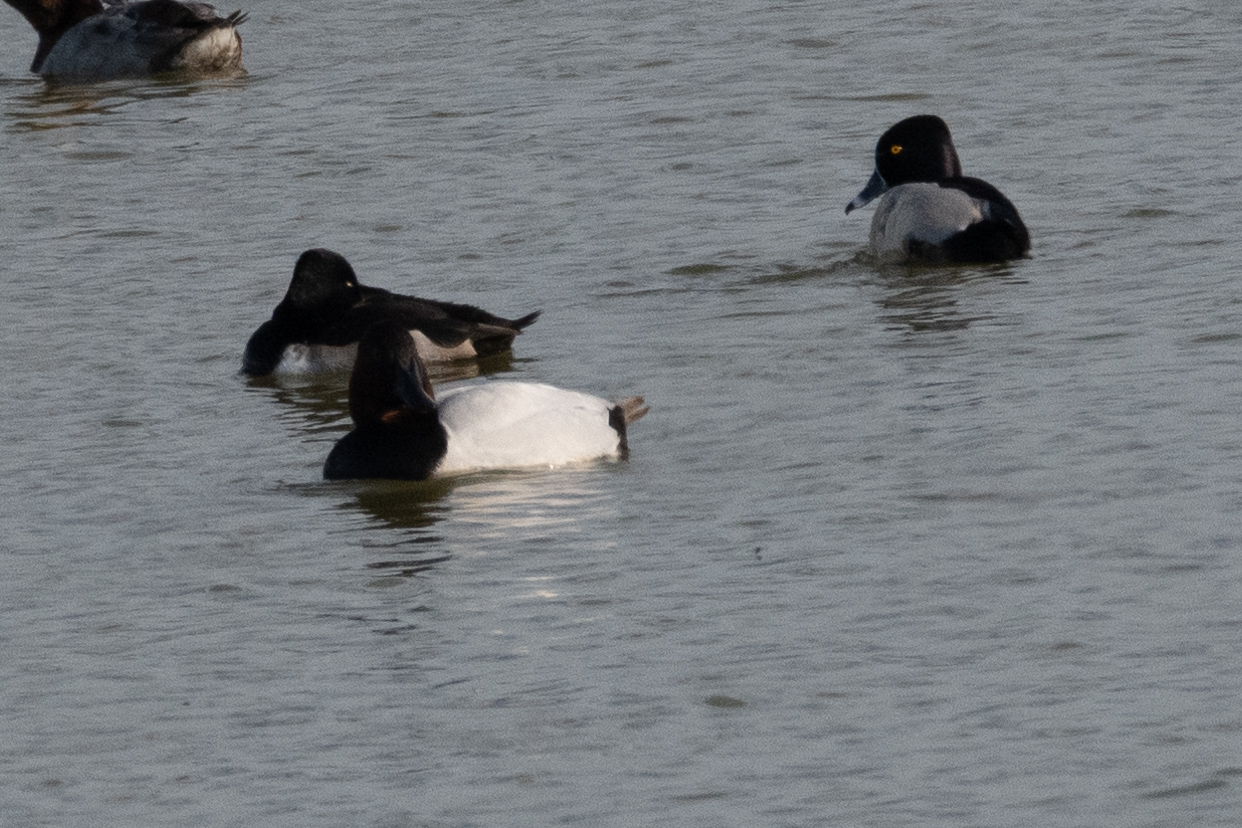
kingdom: Animalia
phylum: Chordata
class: Aves
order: Anseriformes
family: Anatidae
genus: Aythya
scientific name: Aythya collaris
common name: Ring-necked duck
